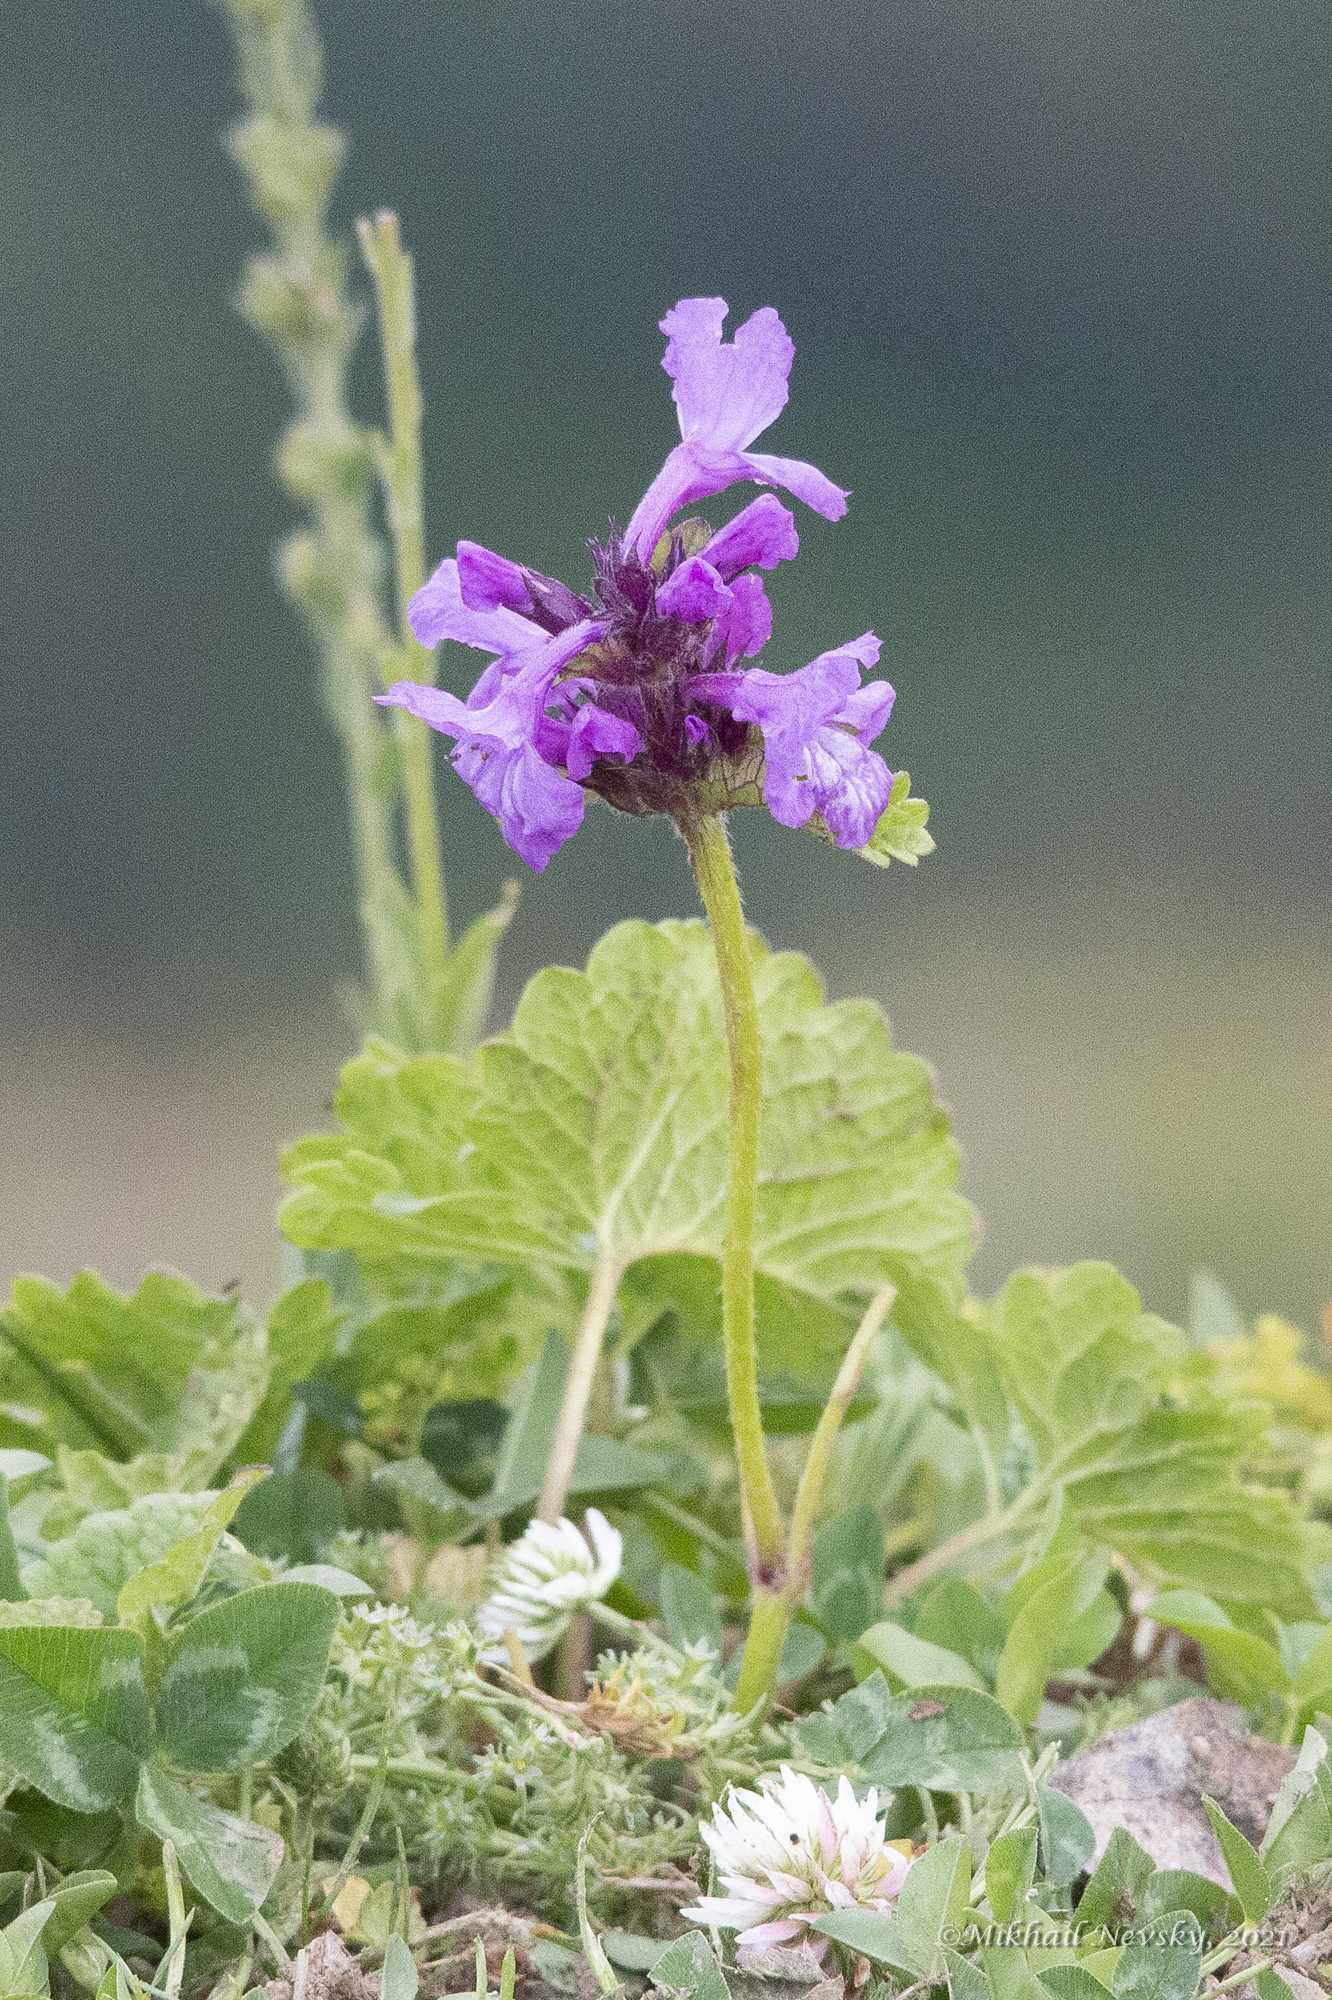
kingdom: Plantae
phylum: Tracheophyta
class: Magnoliopsida
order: Lamiales
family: Lamiaceae
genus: Betonica
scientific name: Betonica macrantha
